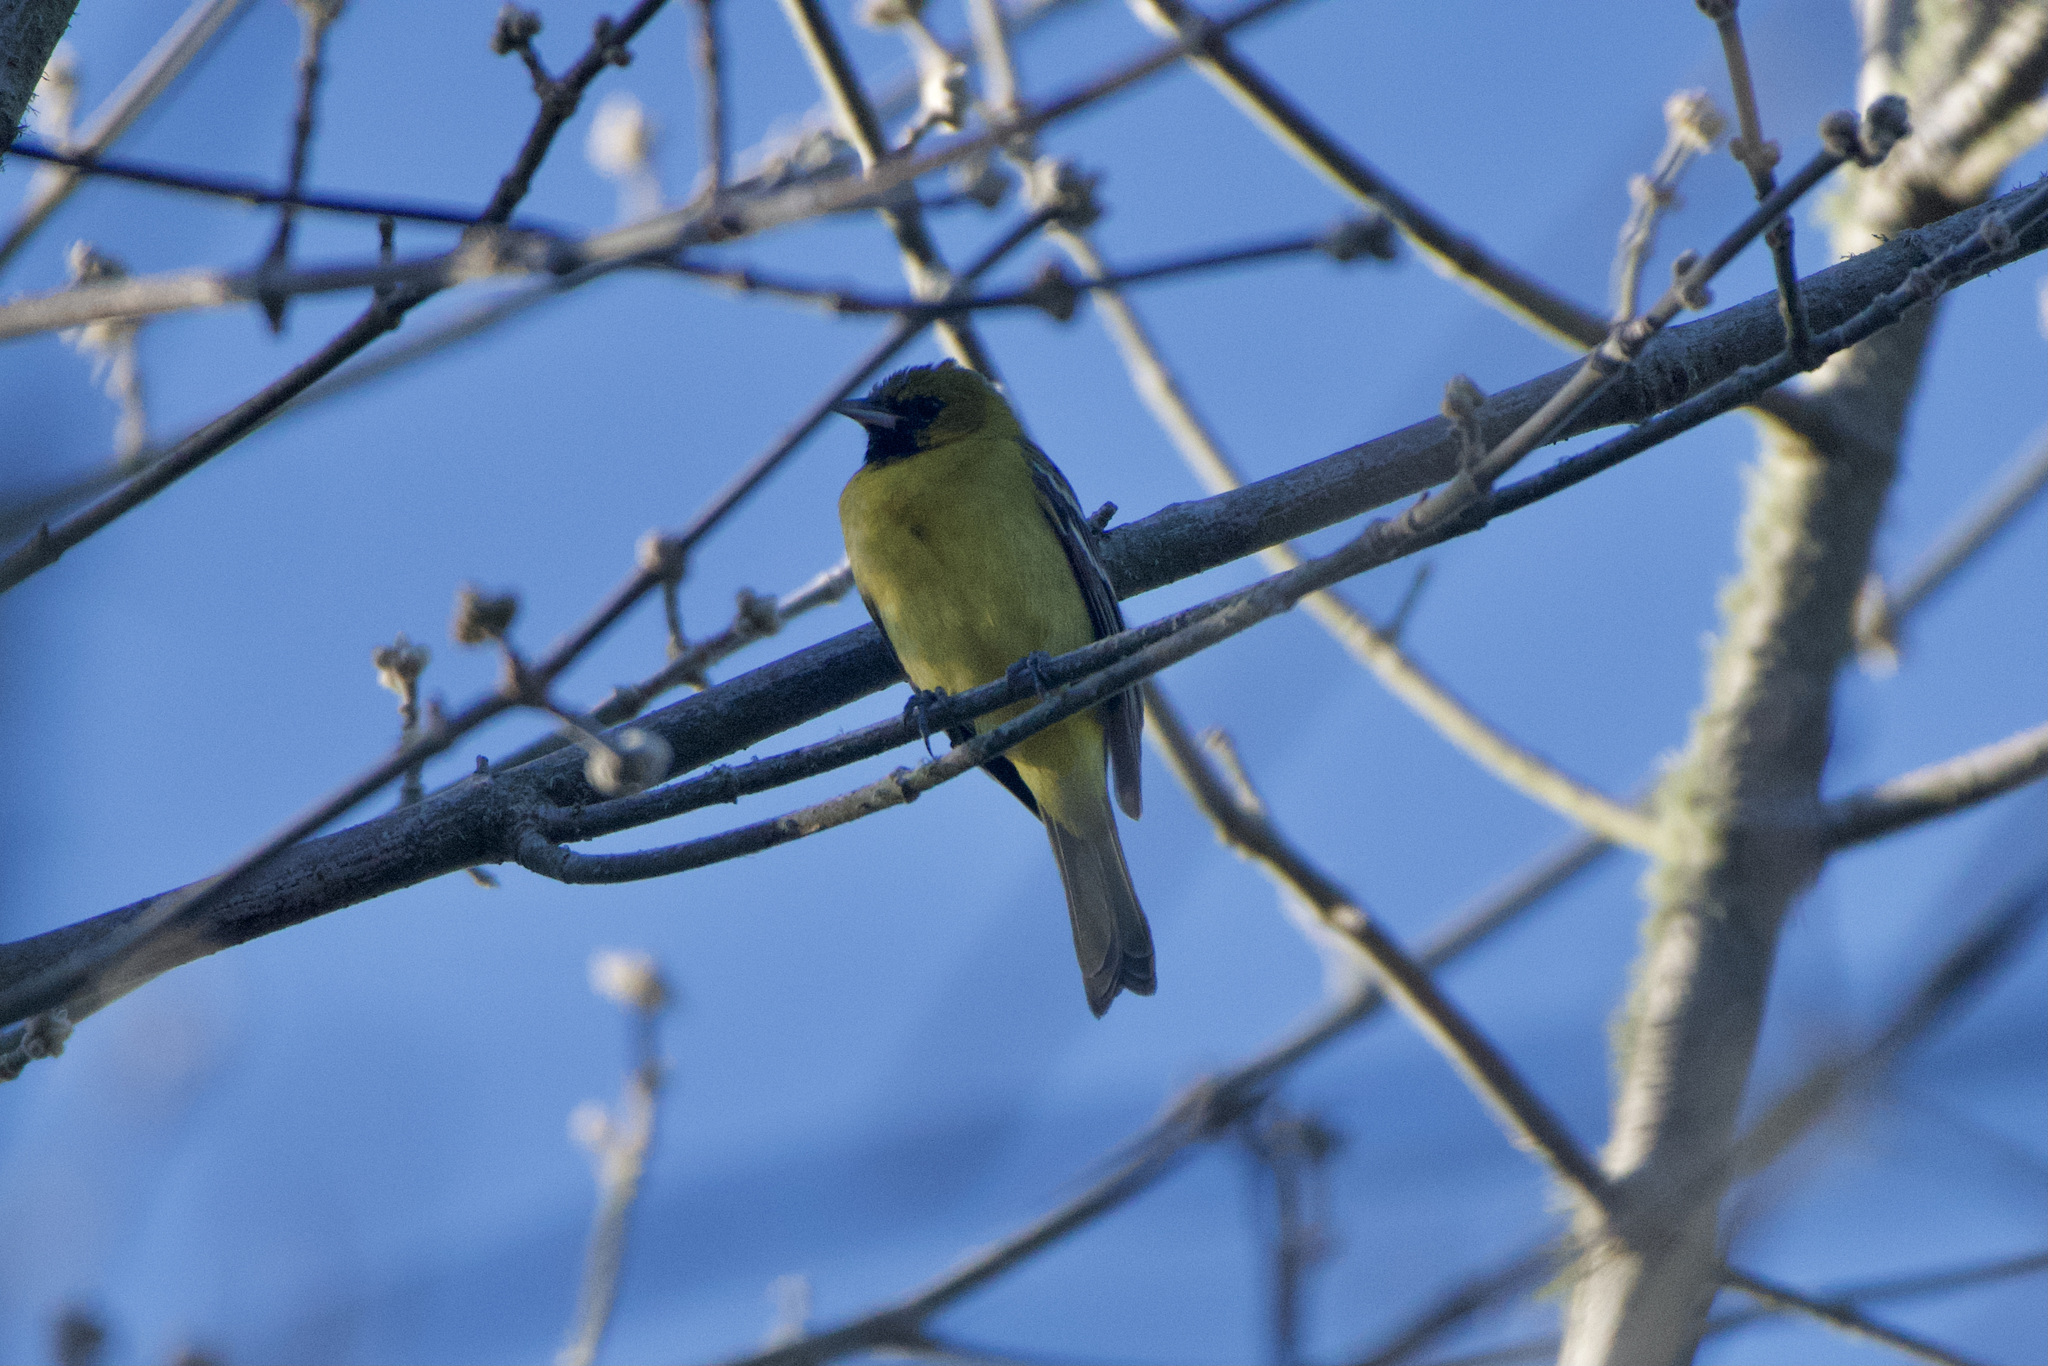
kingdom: Animalia
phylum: Chordata
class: Aves
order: Passeriformes
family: Icteridae
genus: Icterus
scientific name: Icterus spurius
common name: Orchard oriole
